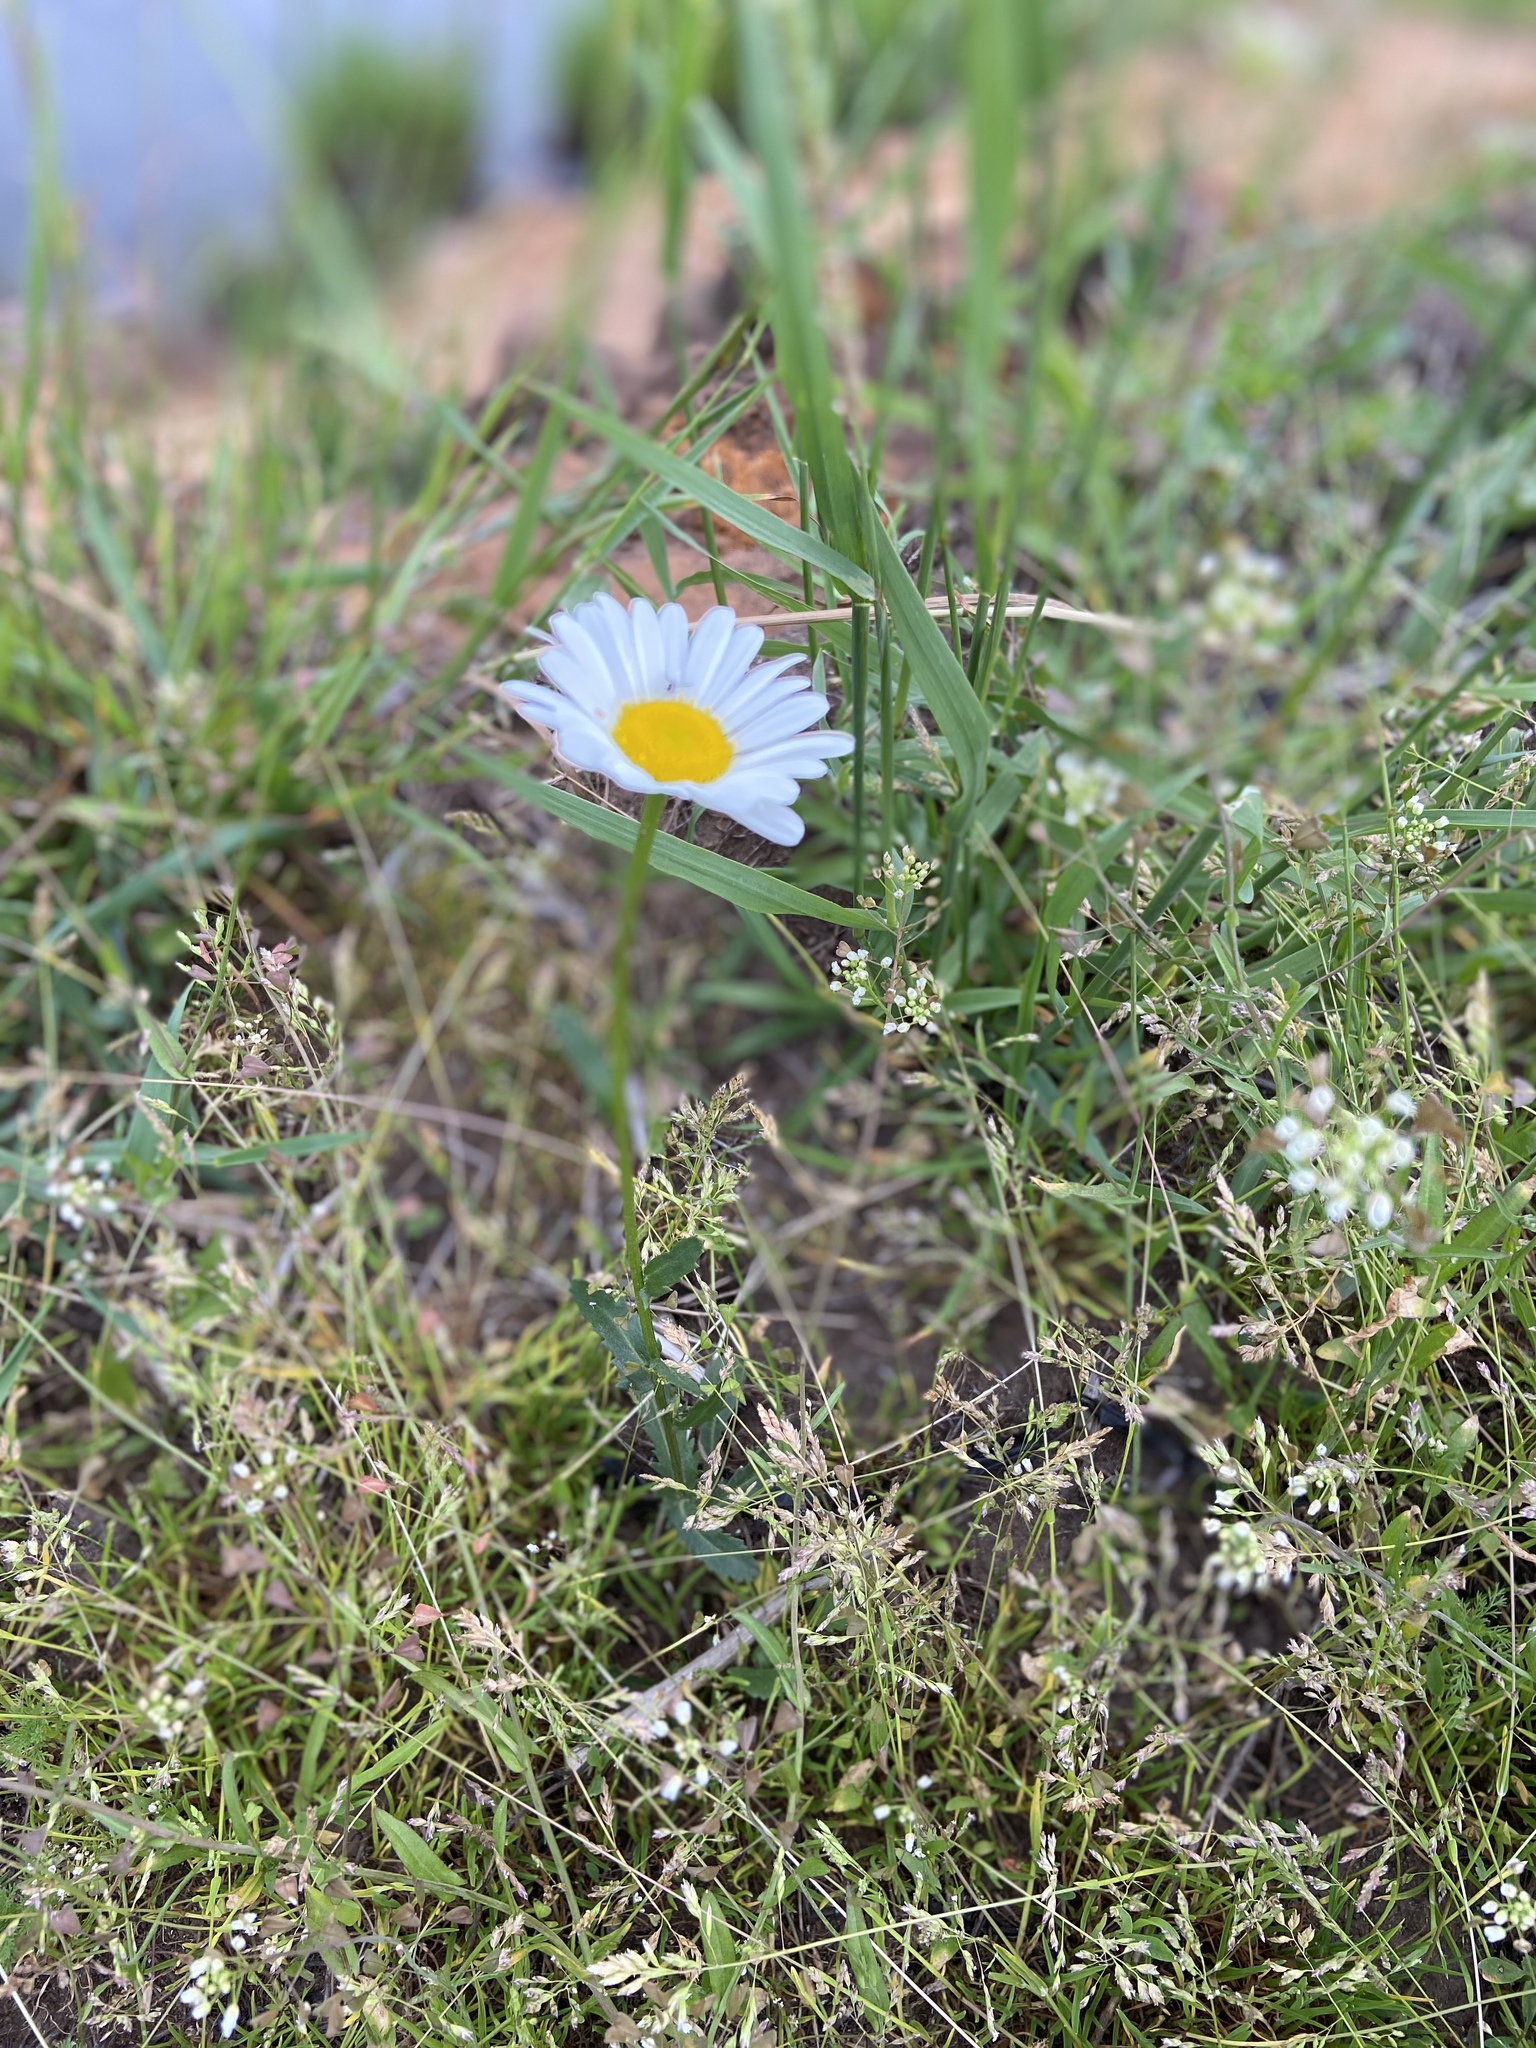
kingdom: Plantae
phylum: Tracheophyta
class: Magnoliopsida
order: Asterales
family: Asteraceae
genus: Leucanthemum
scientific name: Leucanthemum vulgare
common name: Oxeye daisy
